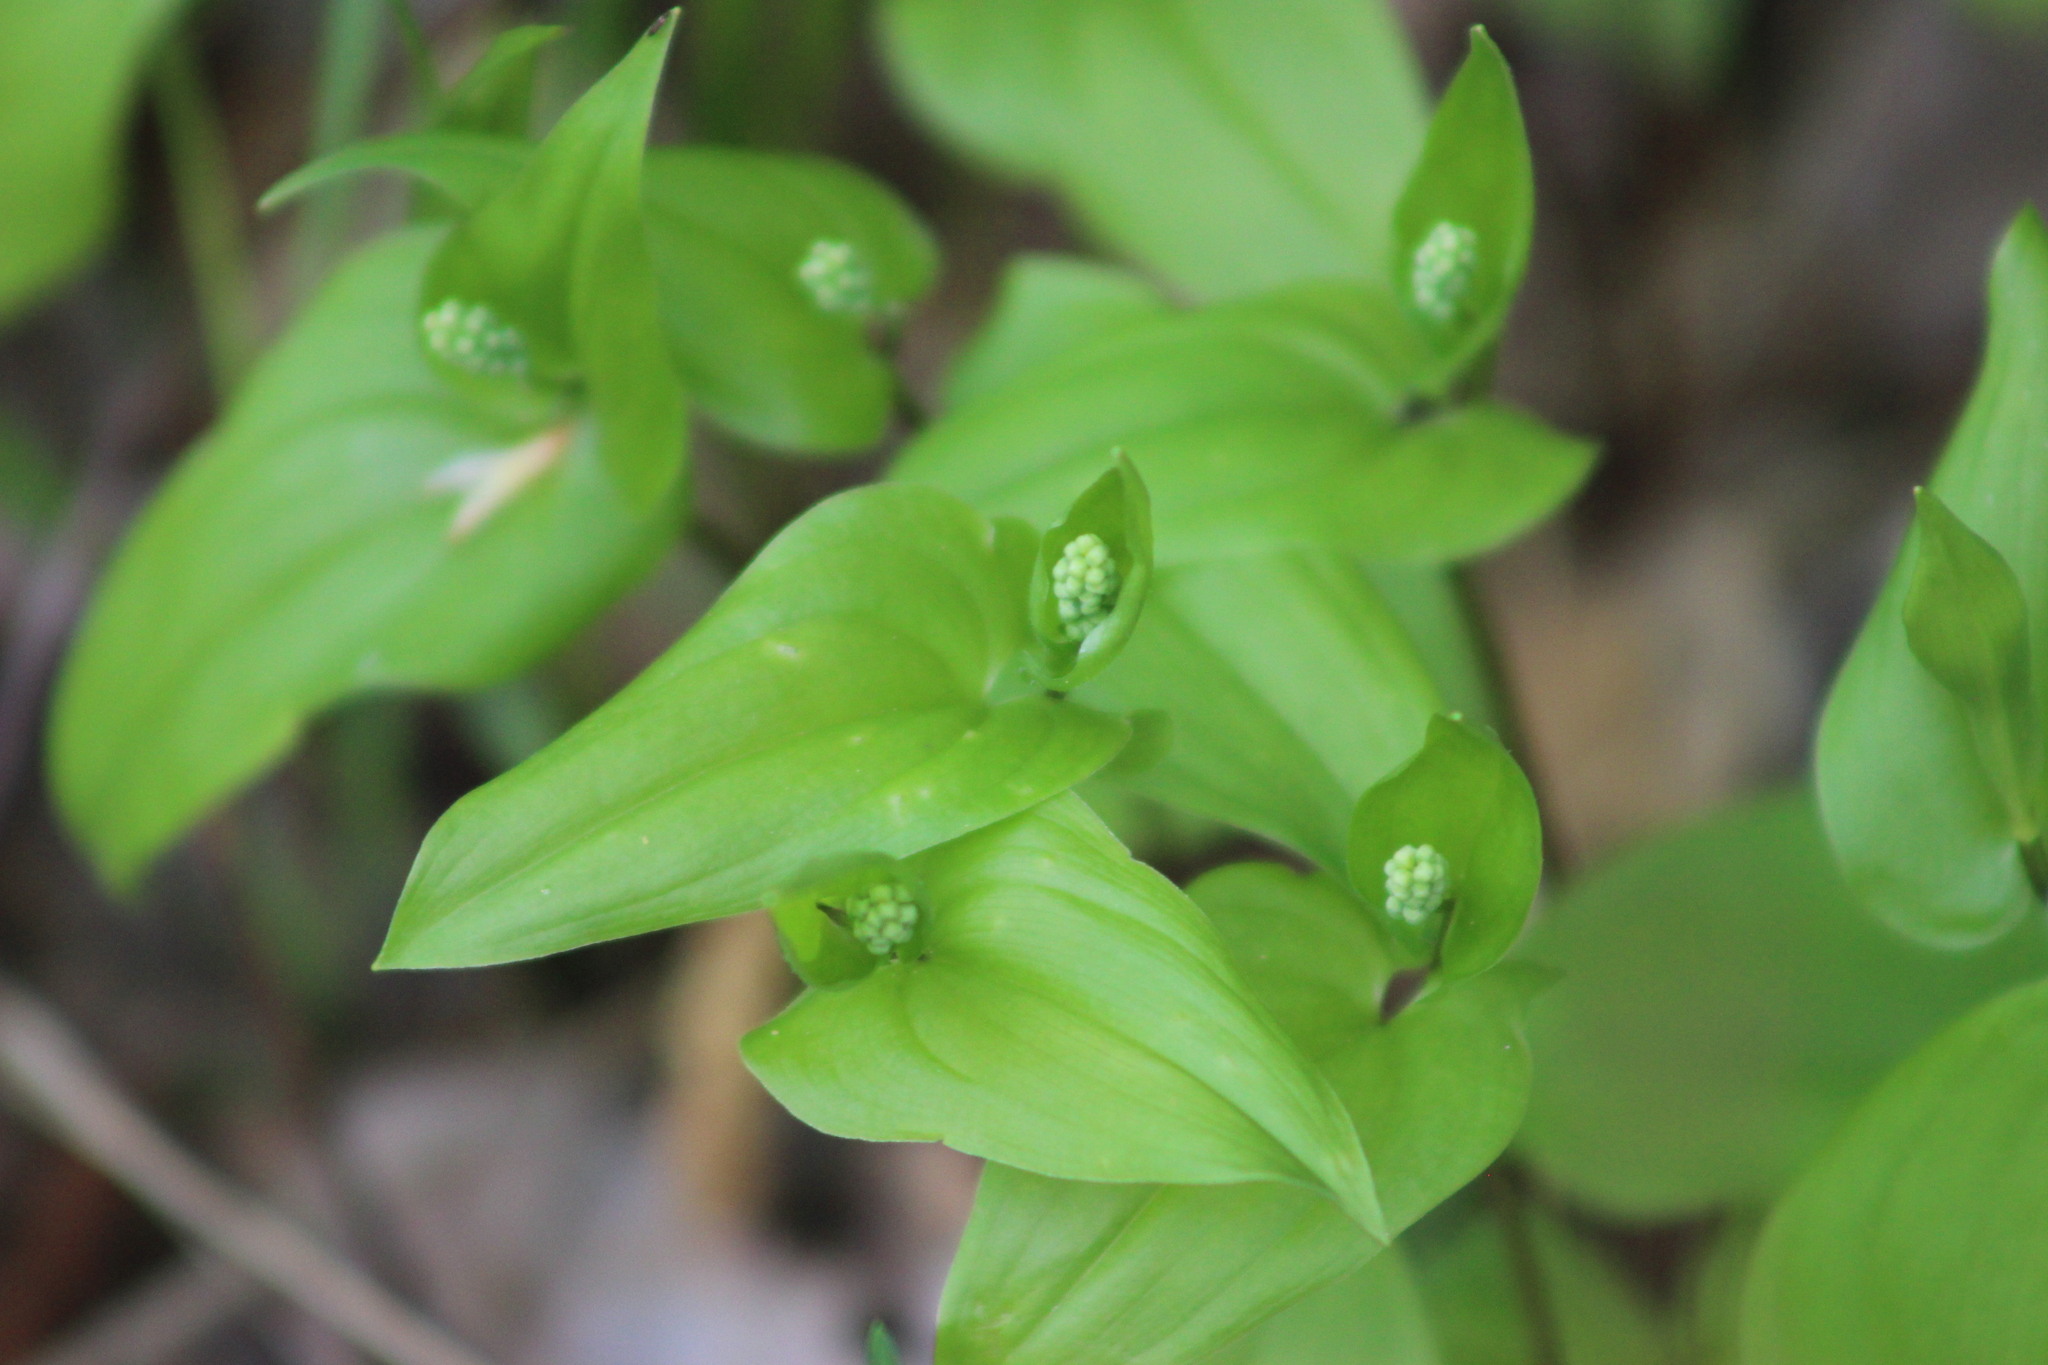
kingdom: Plantae
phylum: Tracheophyta
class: Liliopsida
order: Asparagales
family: Asparagaceae
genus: Maianthemum
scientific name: Maianthemum bifolium
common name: May lily
